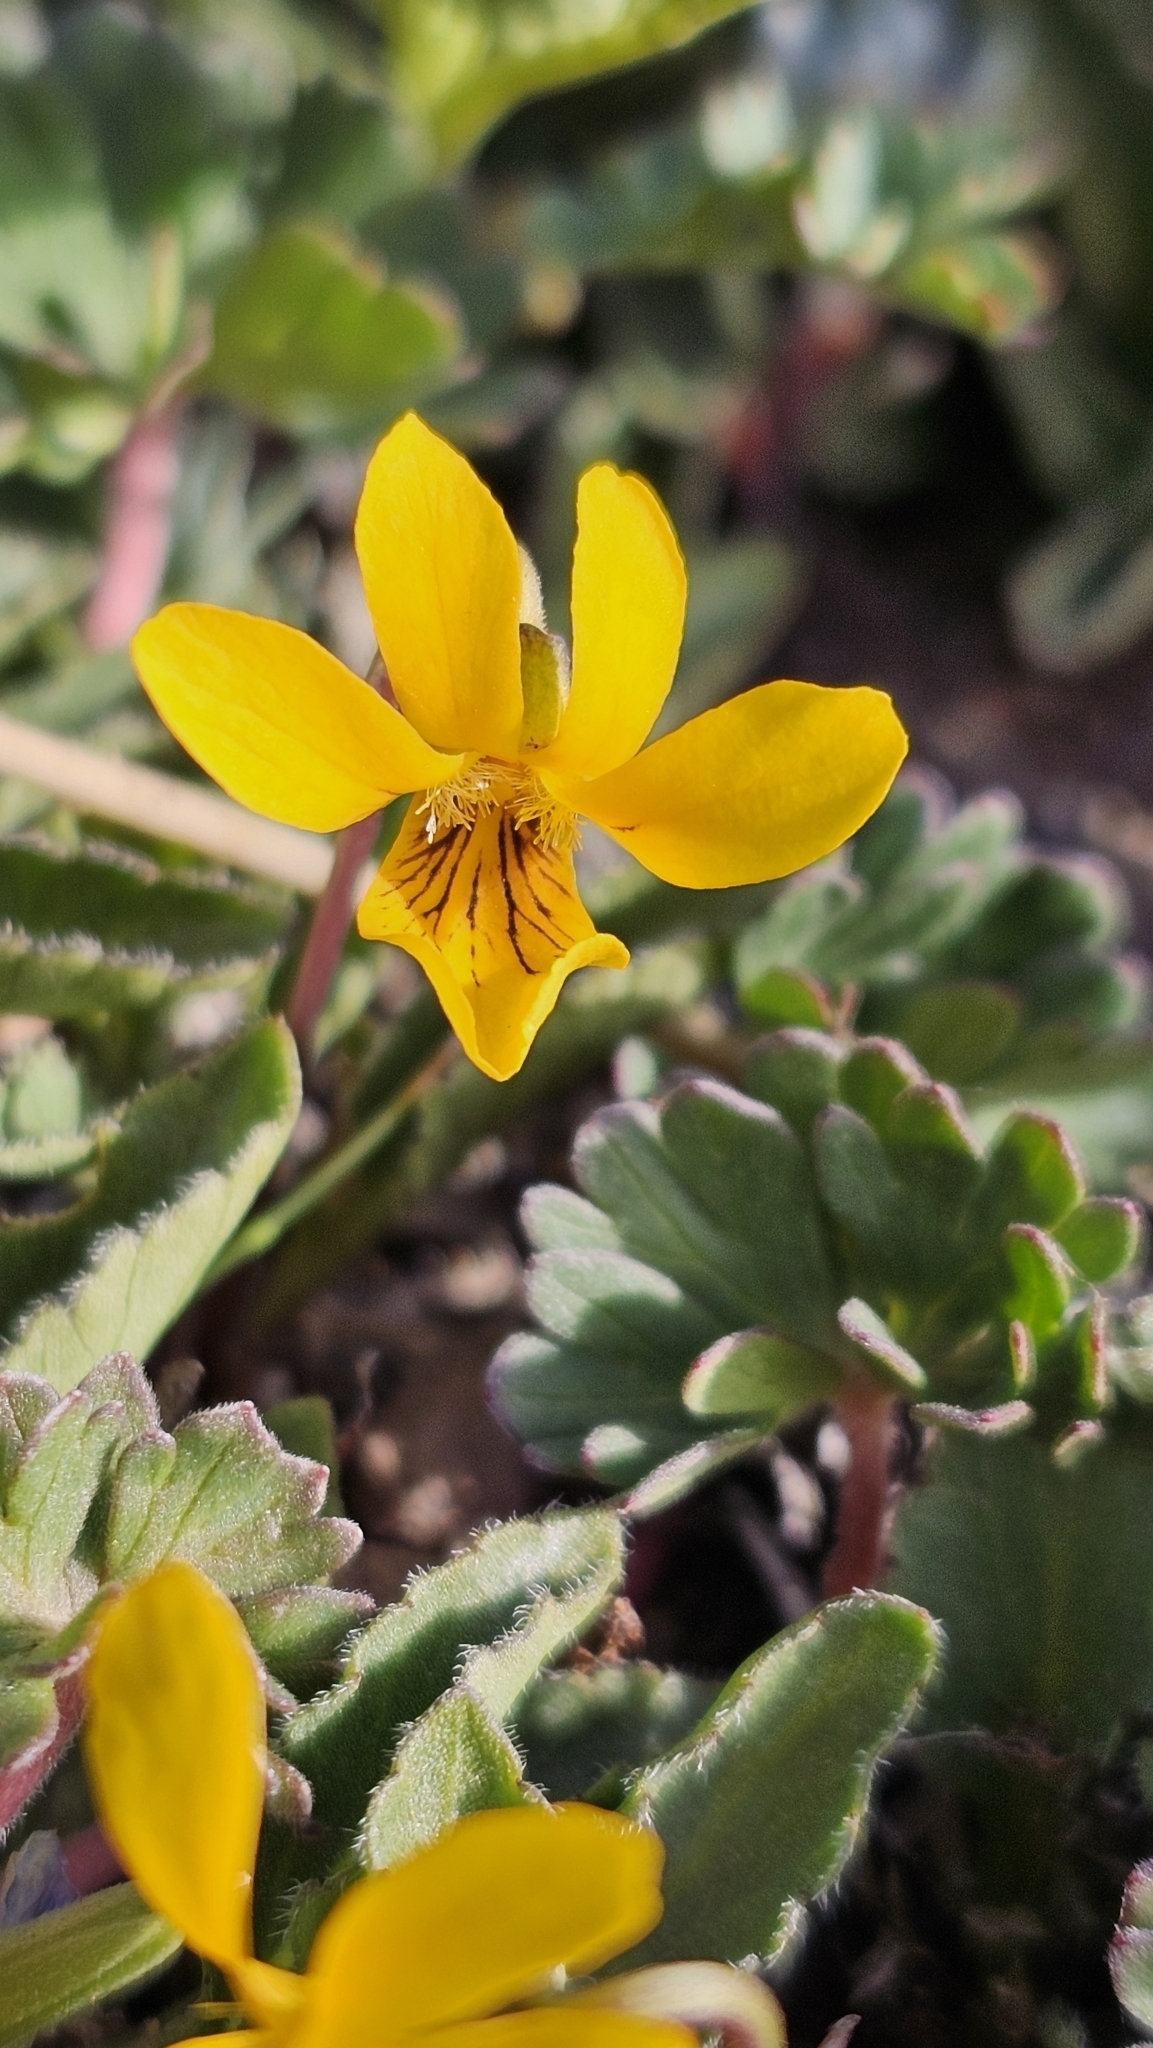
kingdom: Plantae
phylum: Tracheophyta
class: Magnoliopsida
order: Malpighiales
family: Violaceae
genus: Viola
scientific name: Viola maculata
